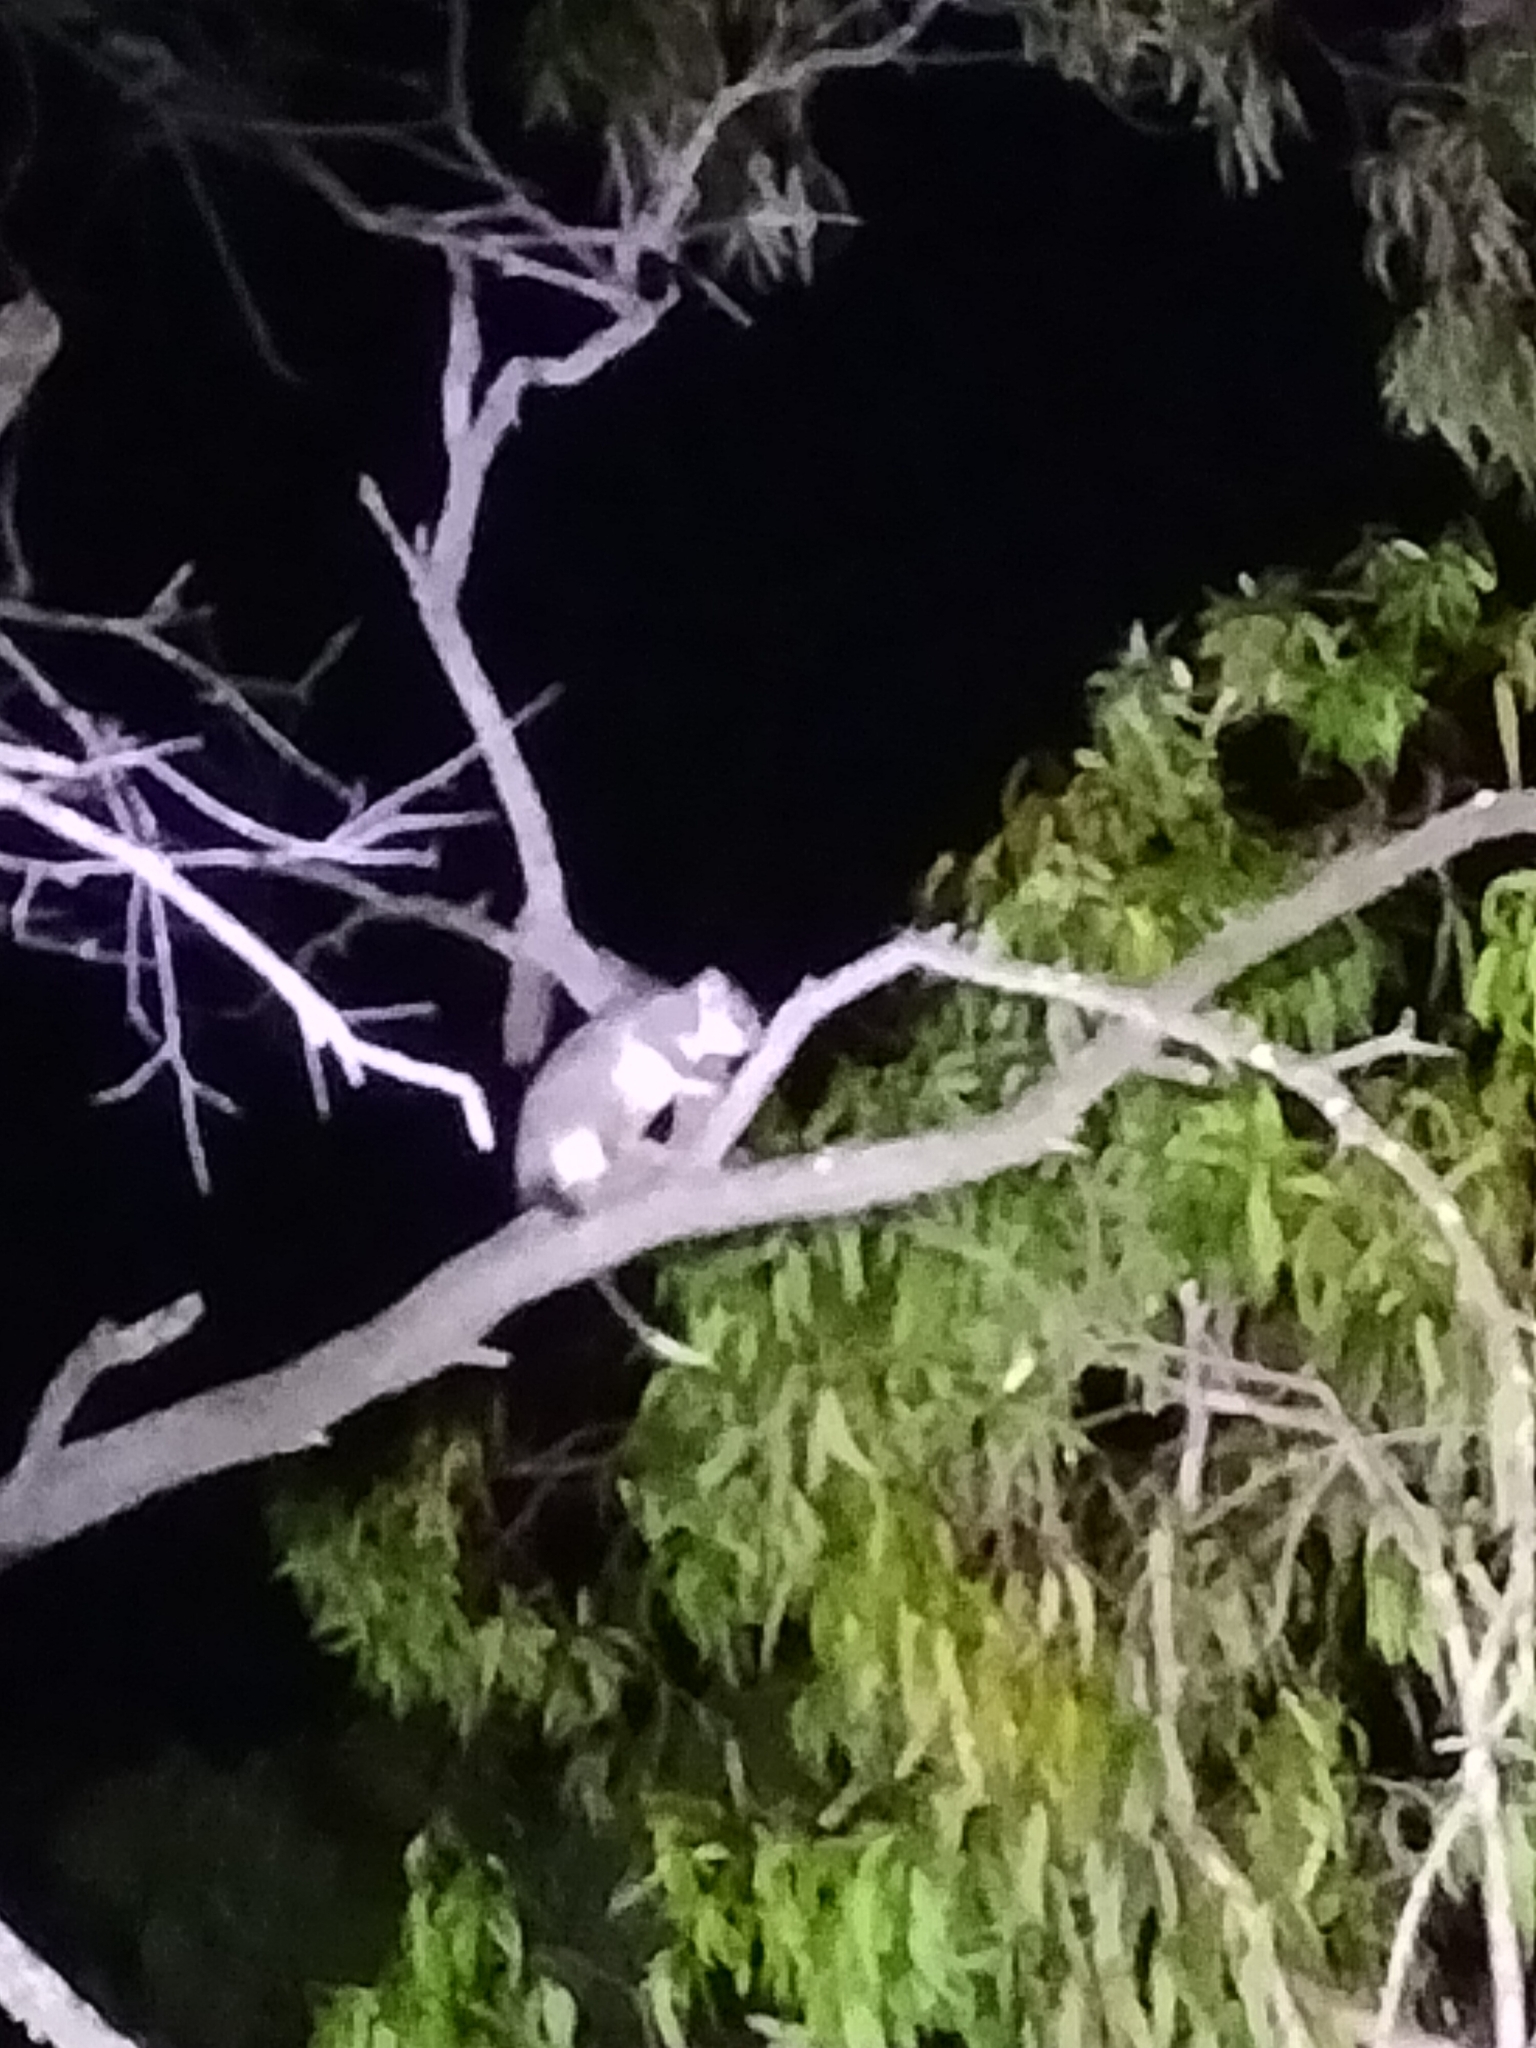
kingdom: Animalia
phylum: Chordata
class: Mammalia
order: Diprotodontia
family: Pseudocheiridae
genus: Pseudocheirus
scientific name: Pseudocheirus peregrinus
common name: Common ringtail possum
